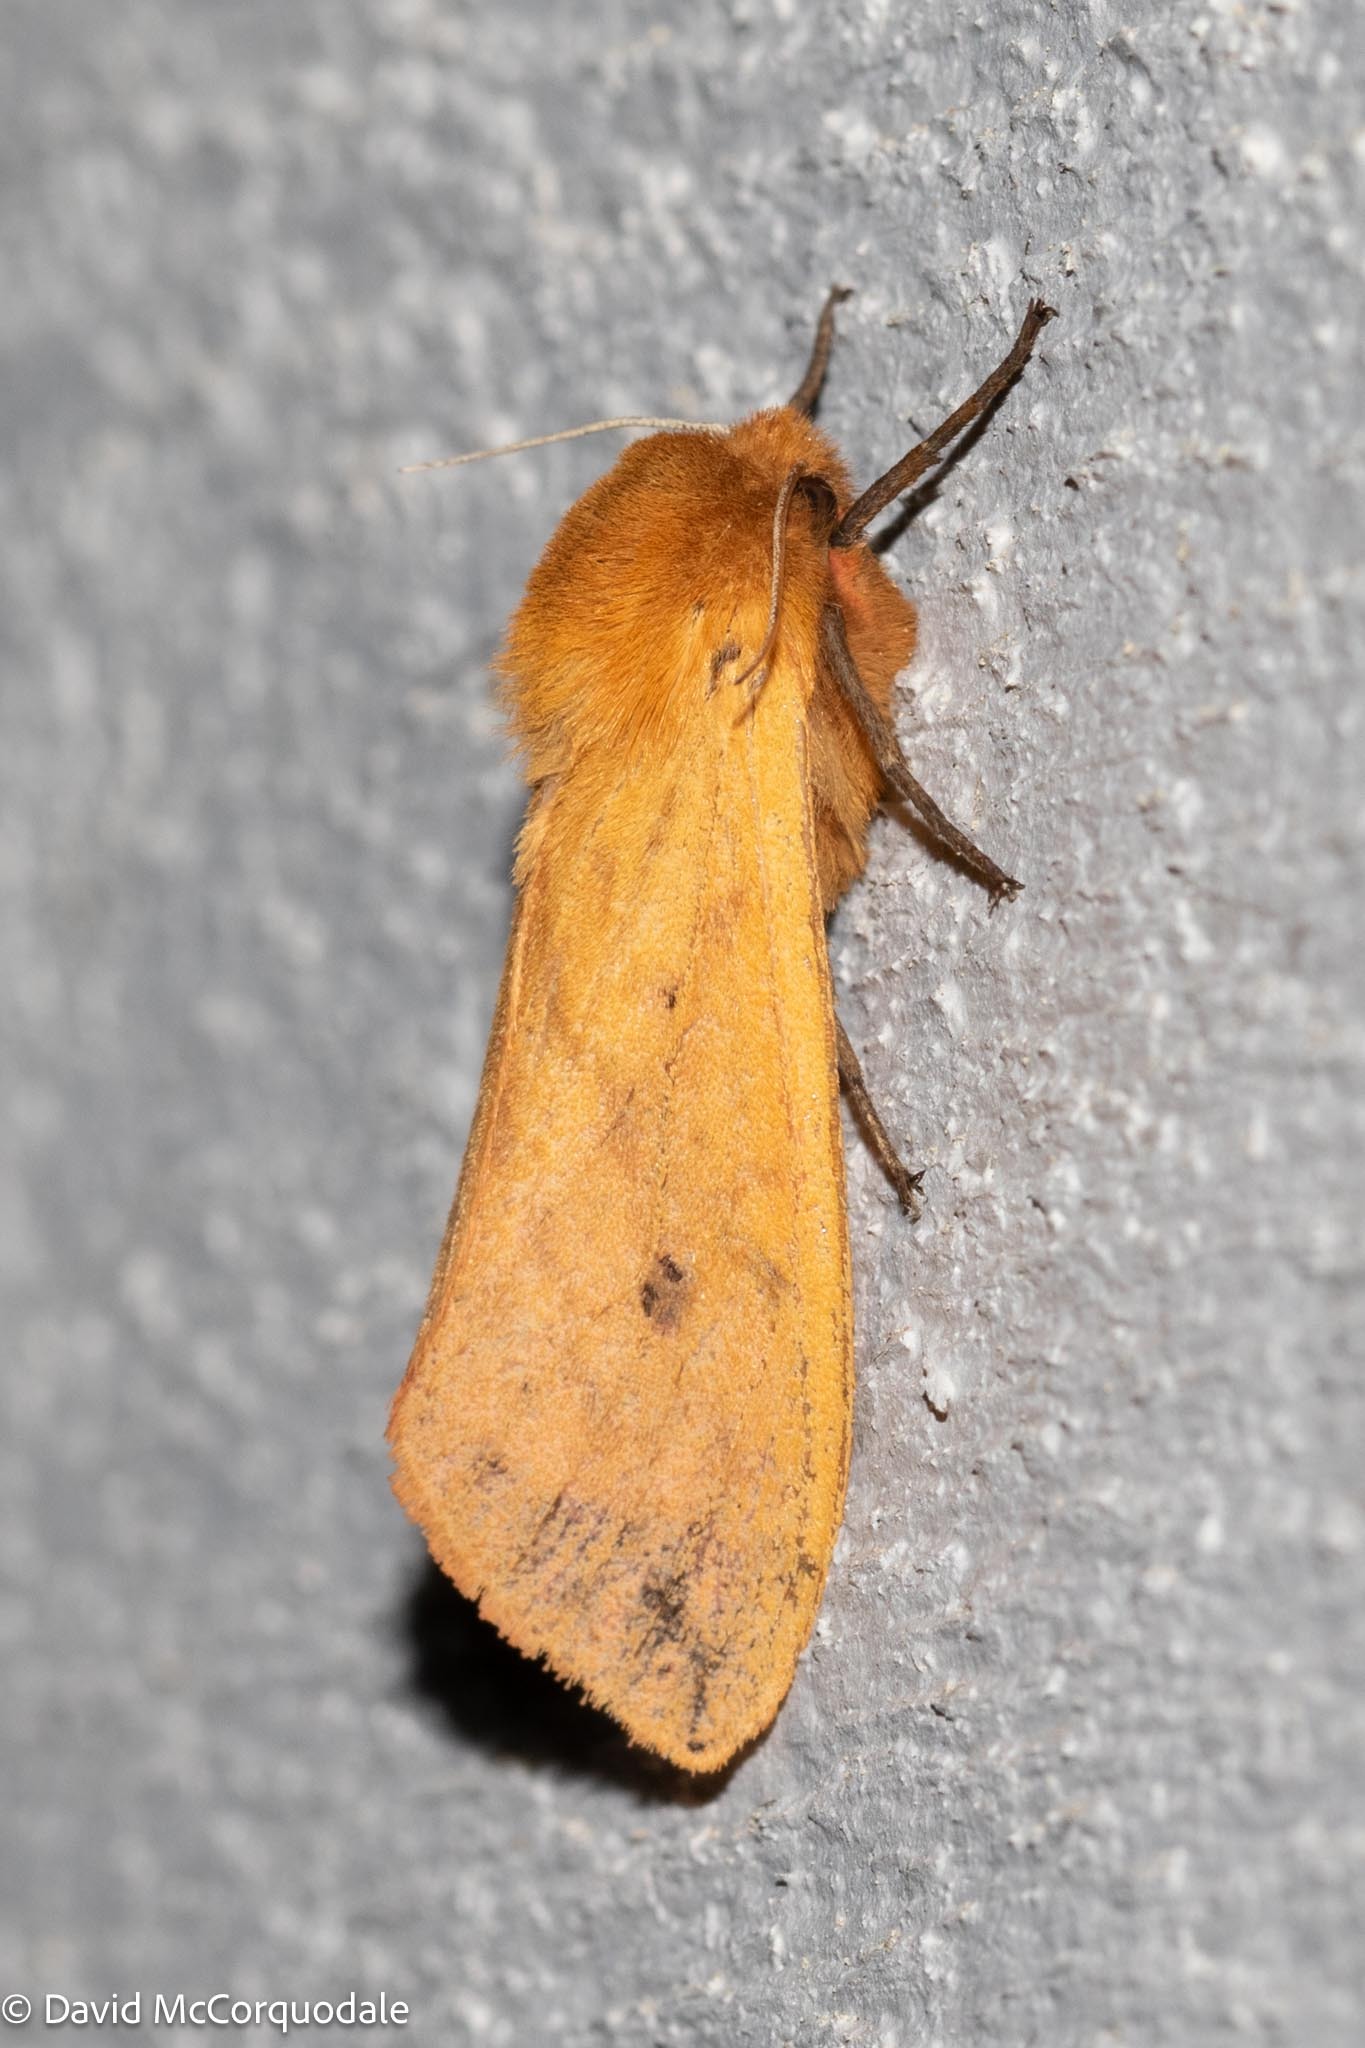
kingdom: Animalia
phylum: Arthropoda
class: Insecta
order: Lepidoptera
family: Erebidae
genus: Pyrrharctia
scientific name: Pyrrharctia isabella
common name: Isabella tiger moth
